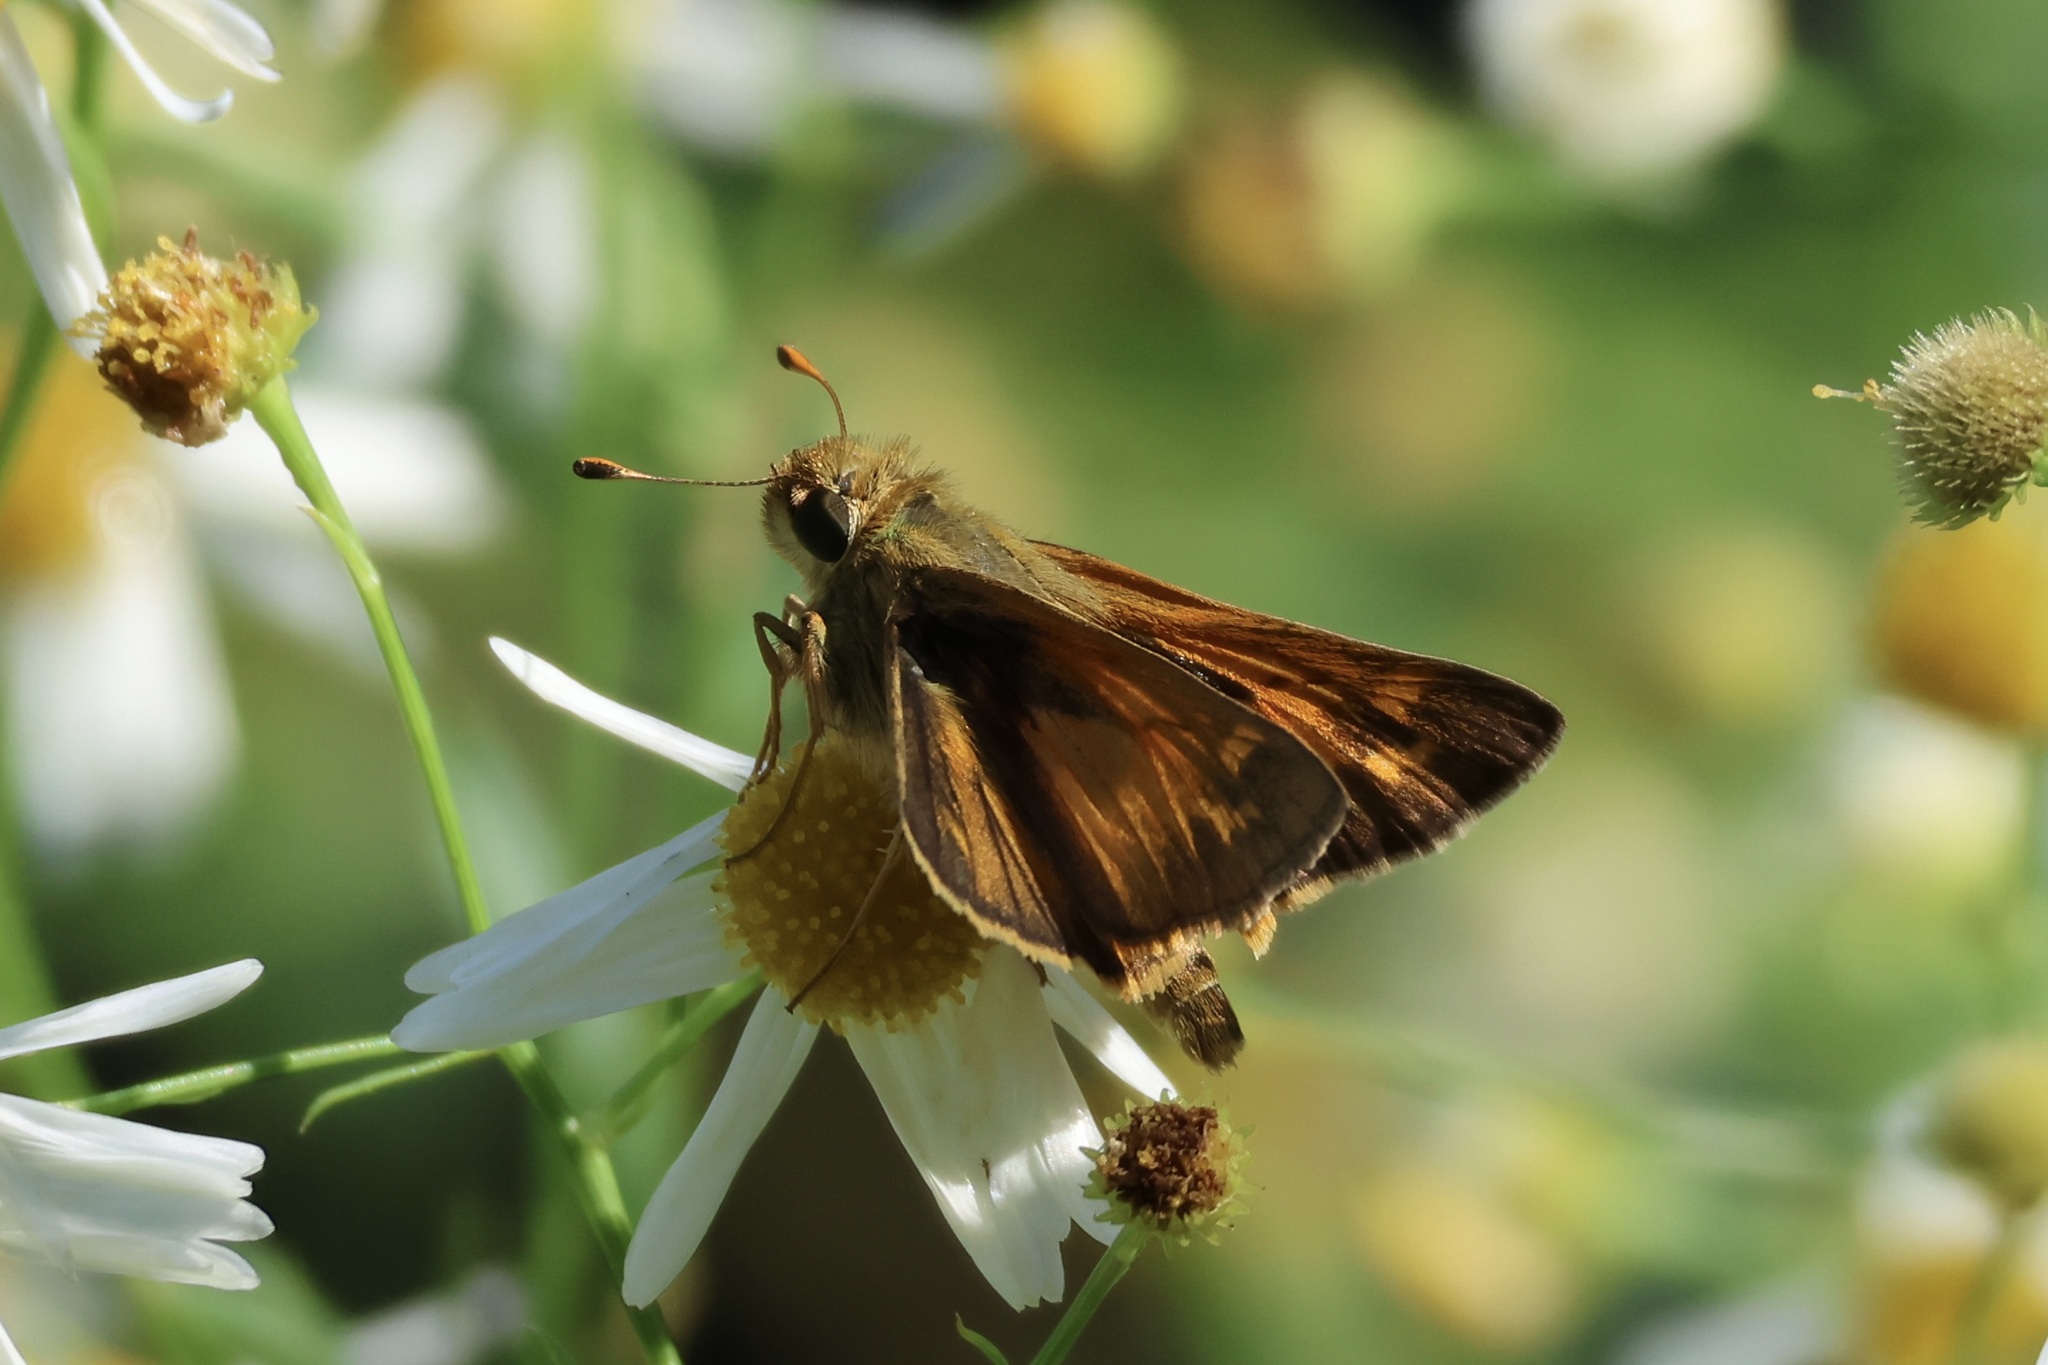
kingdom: Animalia
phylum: Arthropoda
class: Insecta
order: Lepidoptera
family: Hesperiidae
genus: Atalopedes
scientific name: Atalopedes
